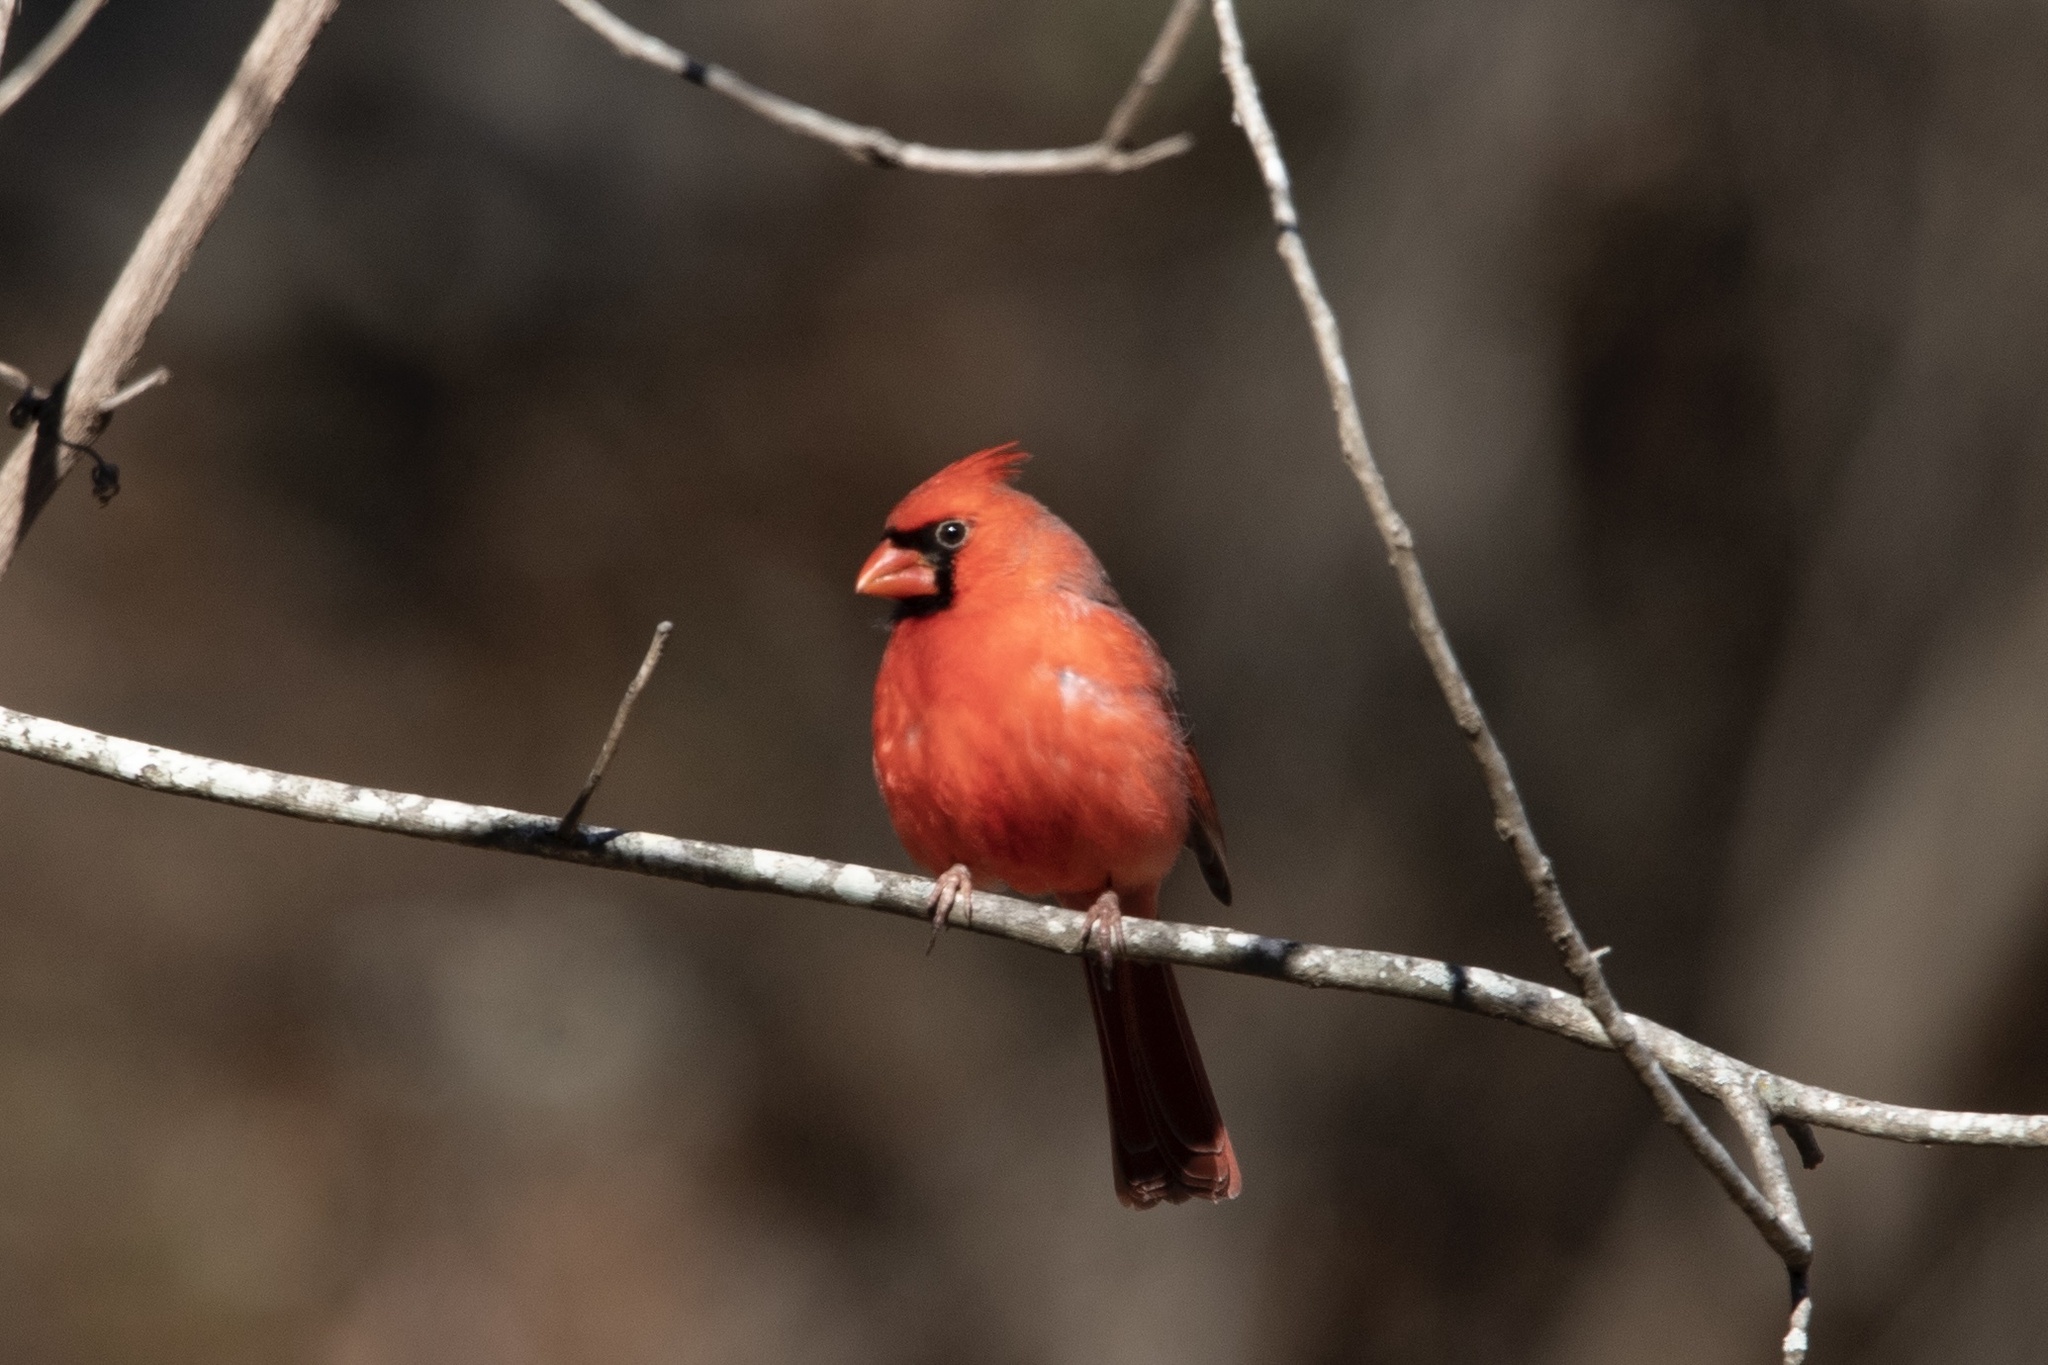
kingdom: Animalia
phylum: Chordata
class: Aves
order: Passeriformes
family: Cardinalidae
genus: Cardinalis
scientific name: Cardinalis cardinalis
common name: Northern cardinal
